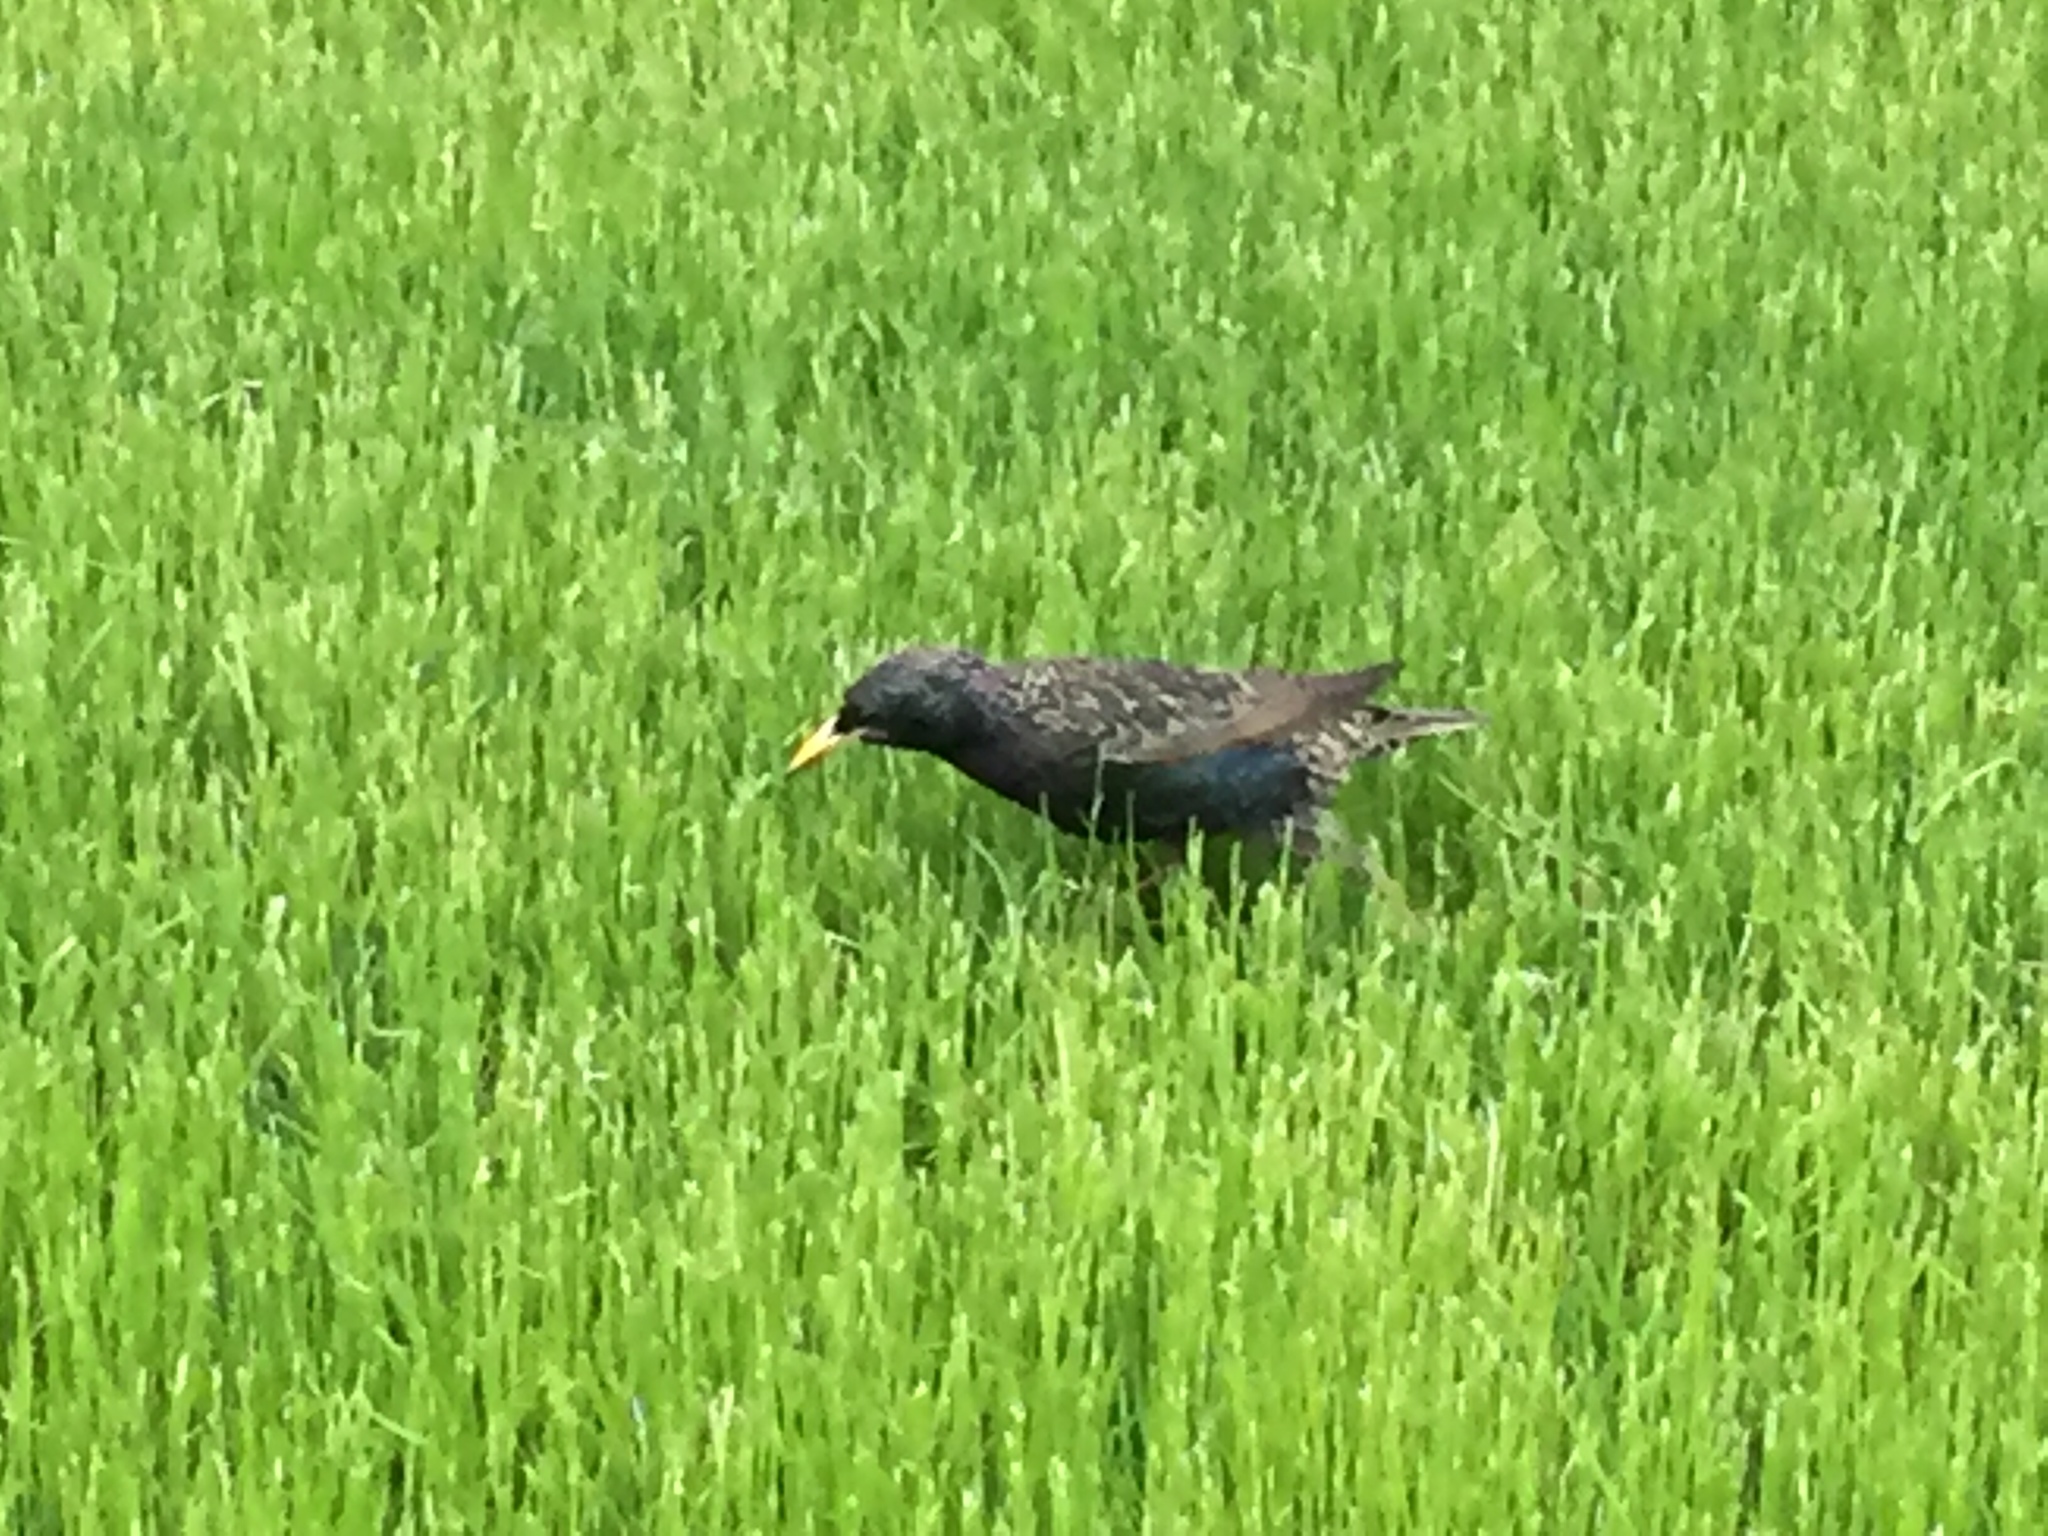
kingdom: Animalia
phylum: Chordata
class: Aves
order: Passeriformes
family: Sturnidae
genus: Sturnus
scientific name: Sturnus vulgaris
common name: Common starling
